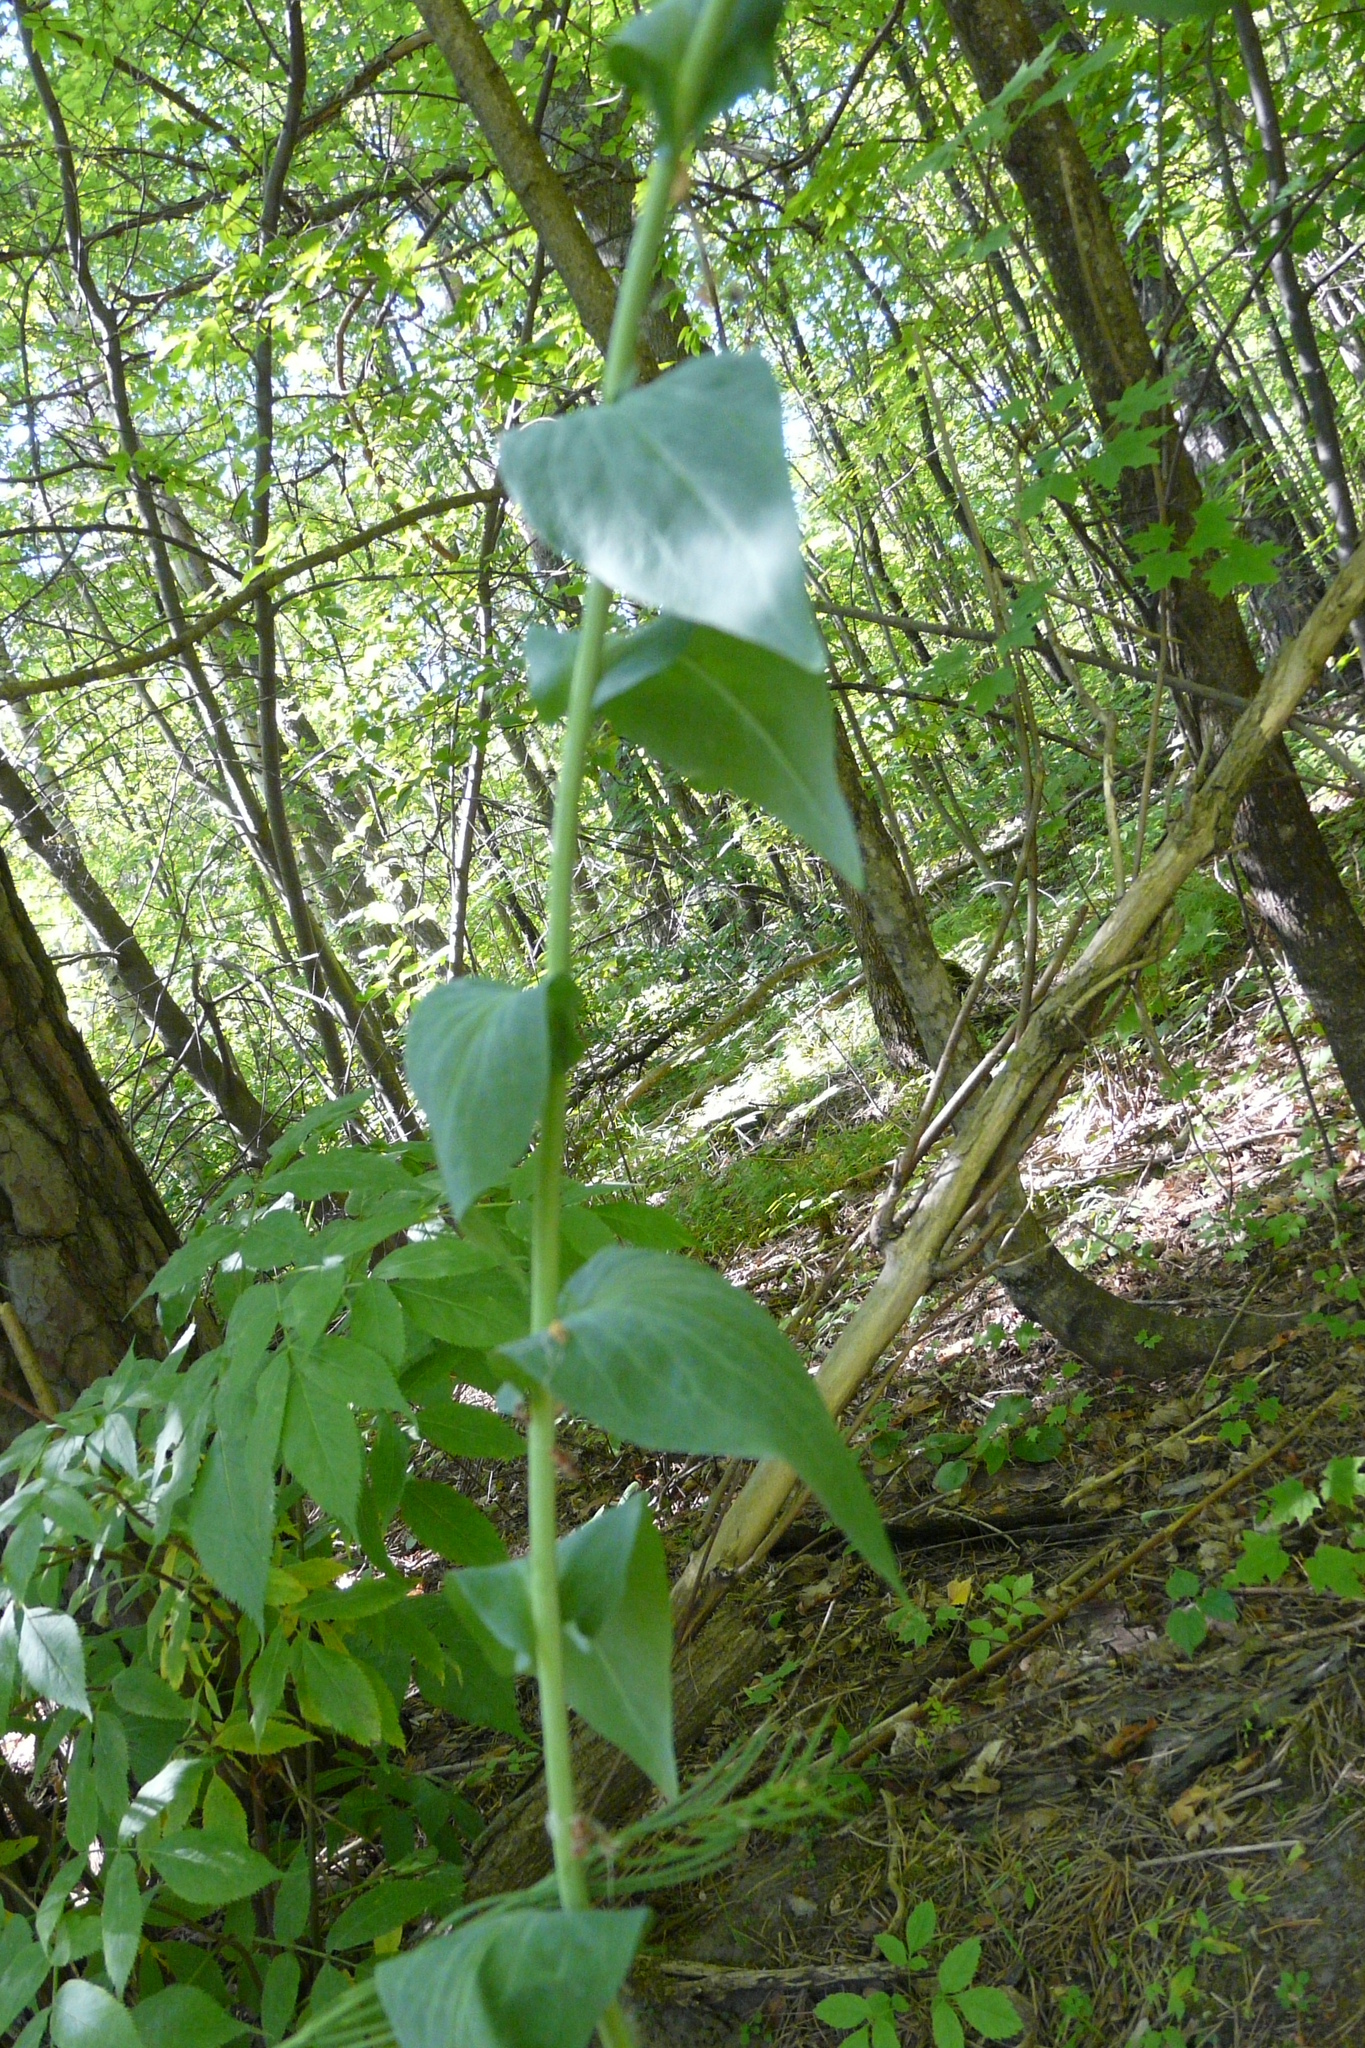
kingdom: Plantae
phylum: Tracheophyta
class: Magnoliopsida
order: Brassicales
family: Brassicaceae
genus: Turritis
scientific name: Turritis glabra
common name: Tower rockcress
